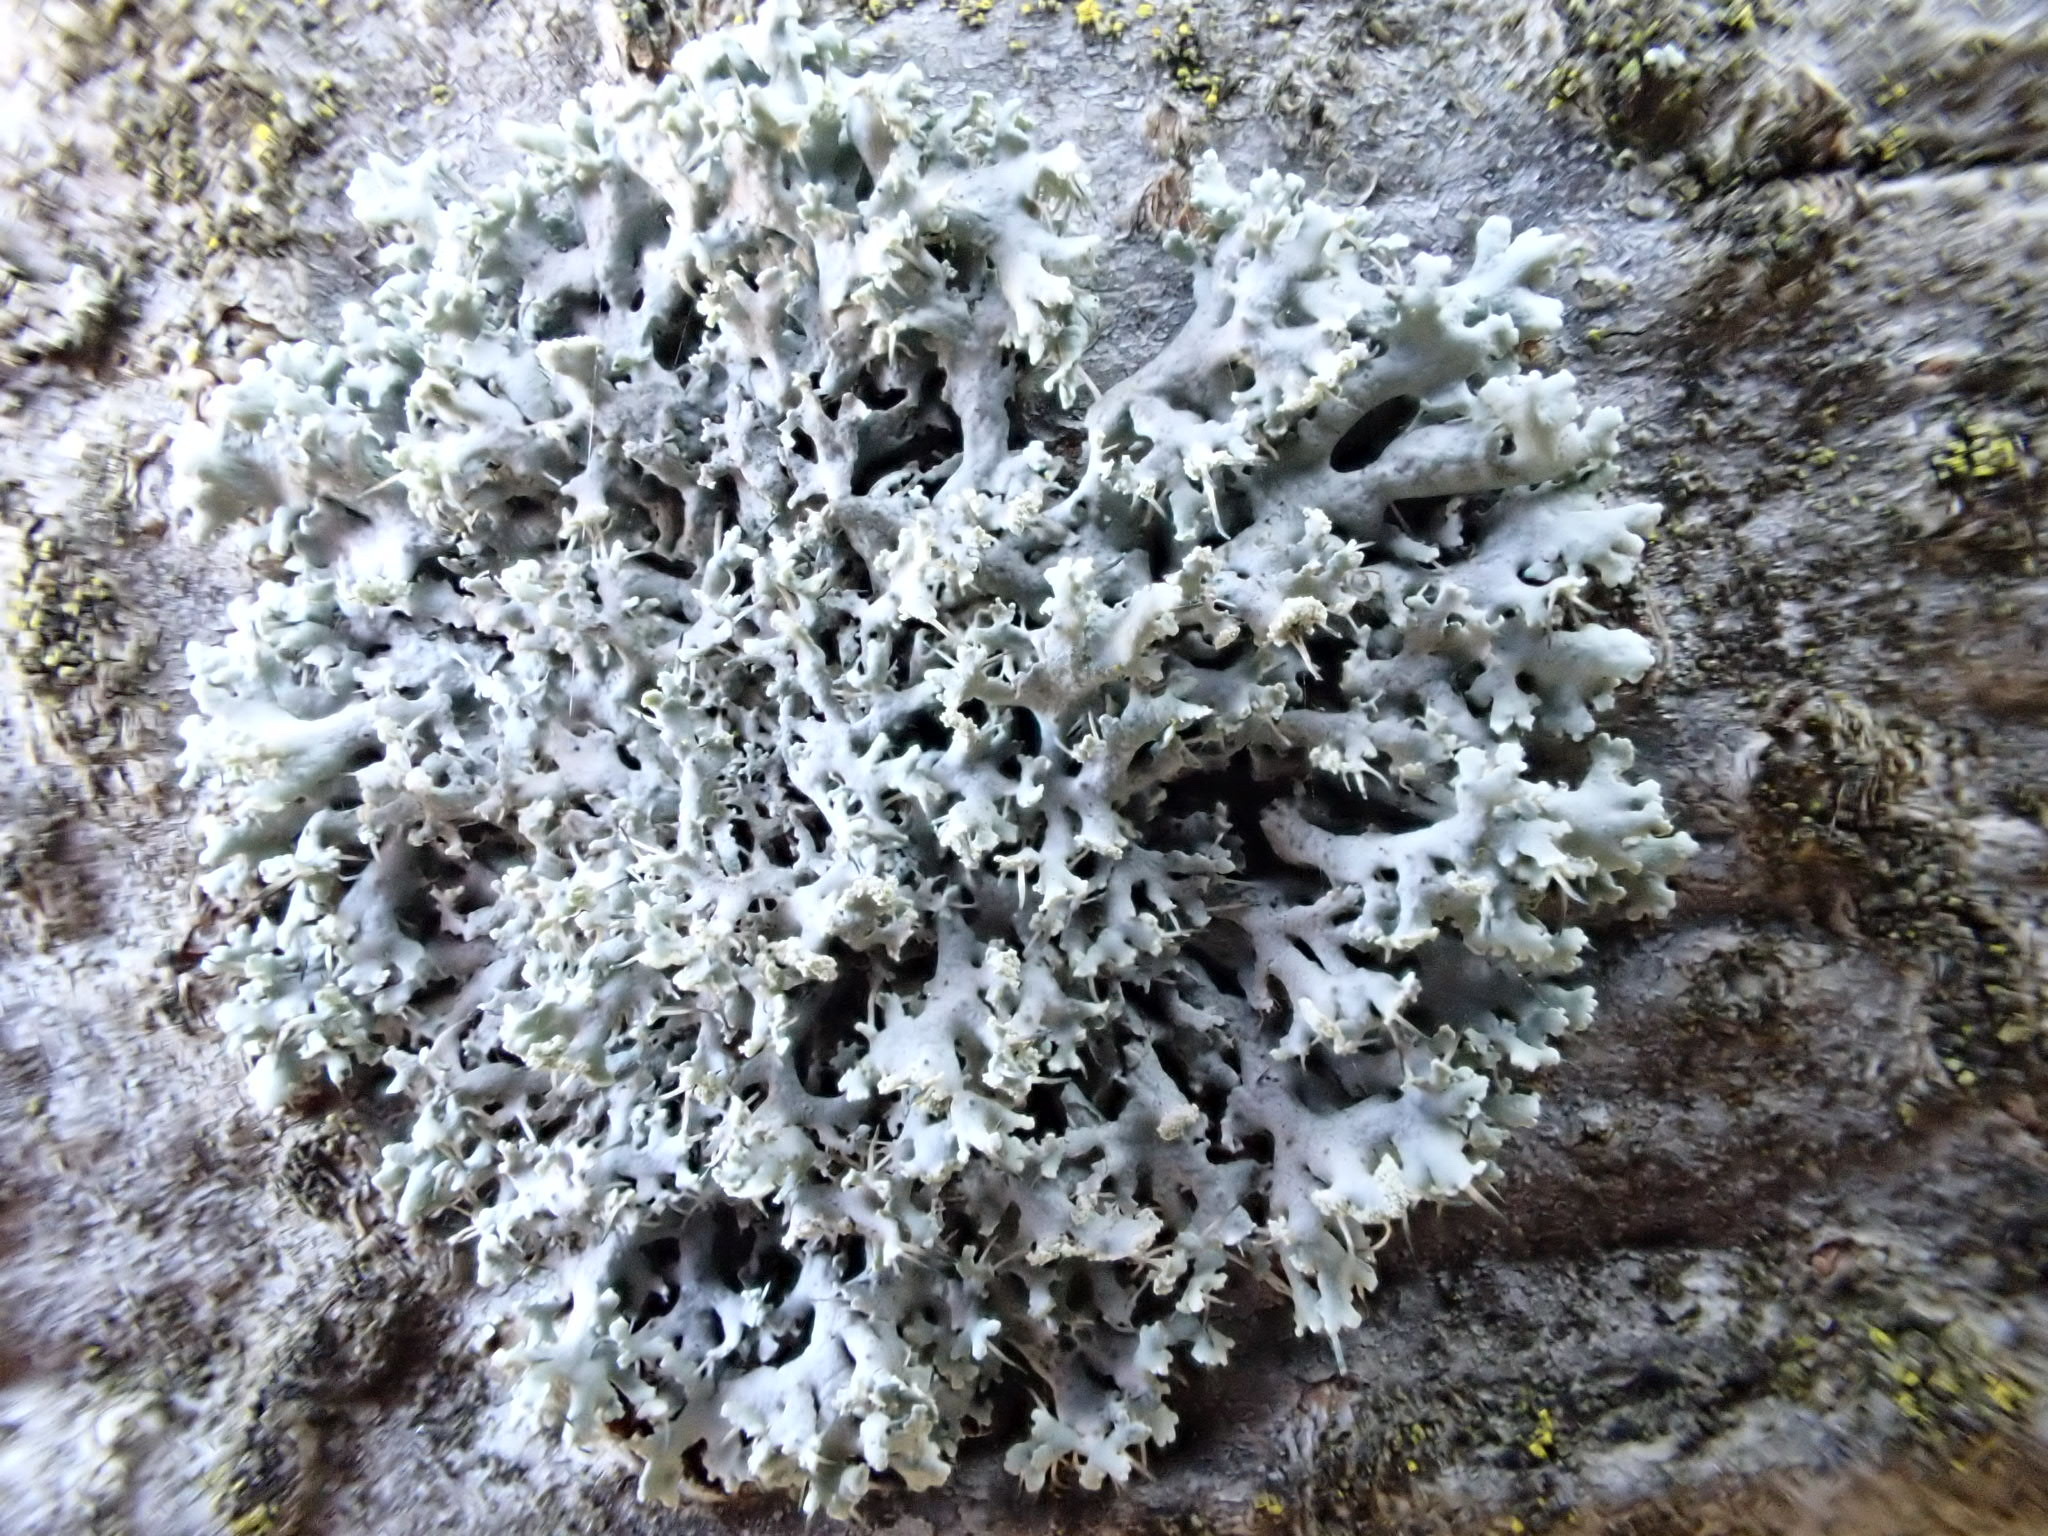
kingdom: Fungi
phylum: Ascomycota
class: Lecanoromycetes
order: Caliciales
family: Physciaceae
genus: Physcia
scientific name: Physcia tenella
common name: Fringed rosette lichen
